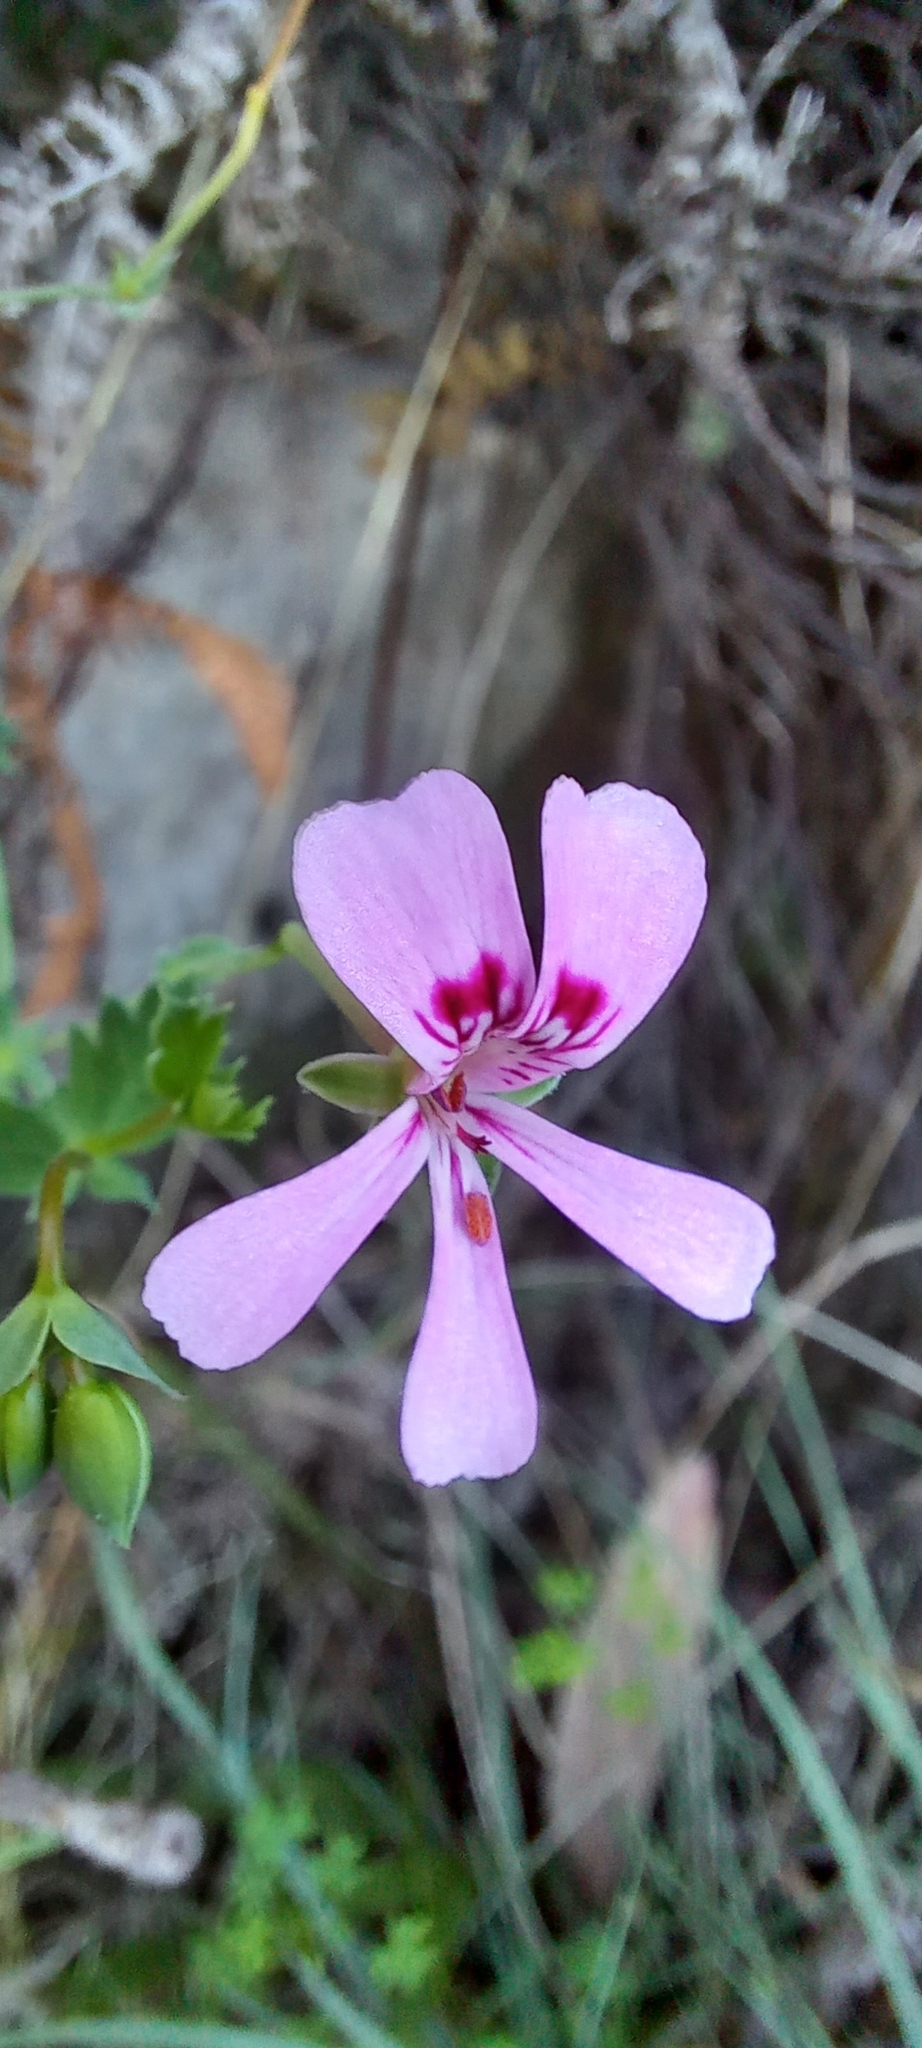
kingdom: Plantae
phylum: Tracheophyta
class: Magnoliopsida
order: Geraniales
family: Geraniaceae
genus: Pelargonium
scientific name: Pelargonium patulum
